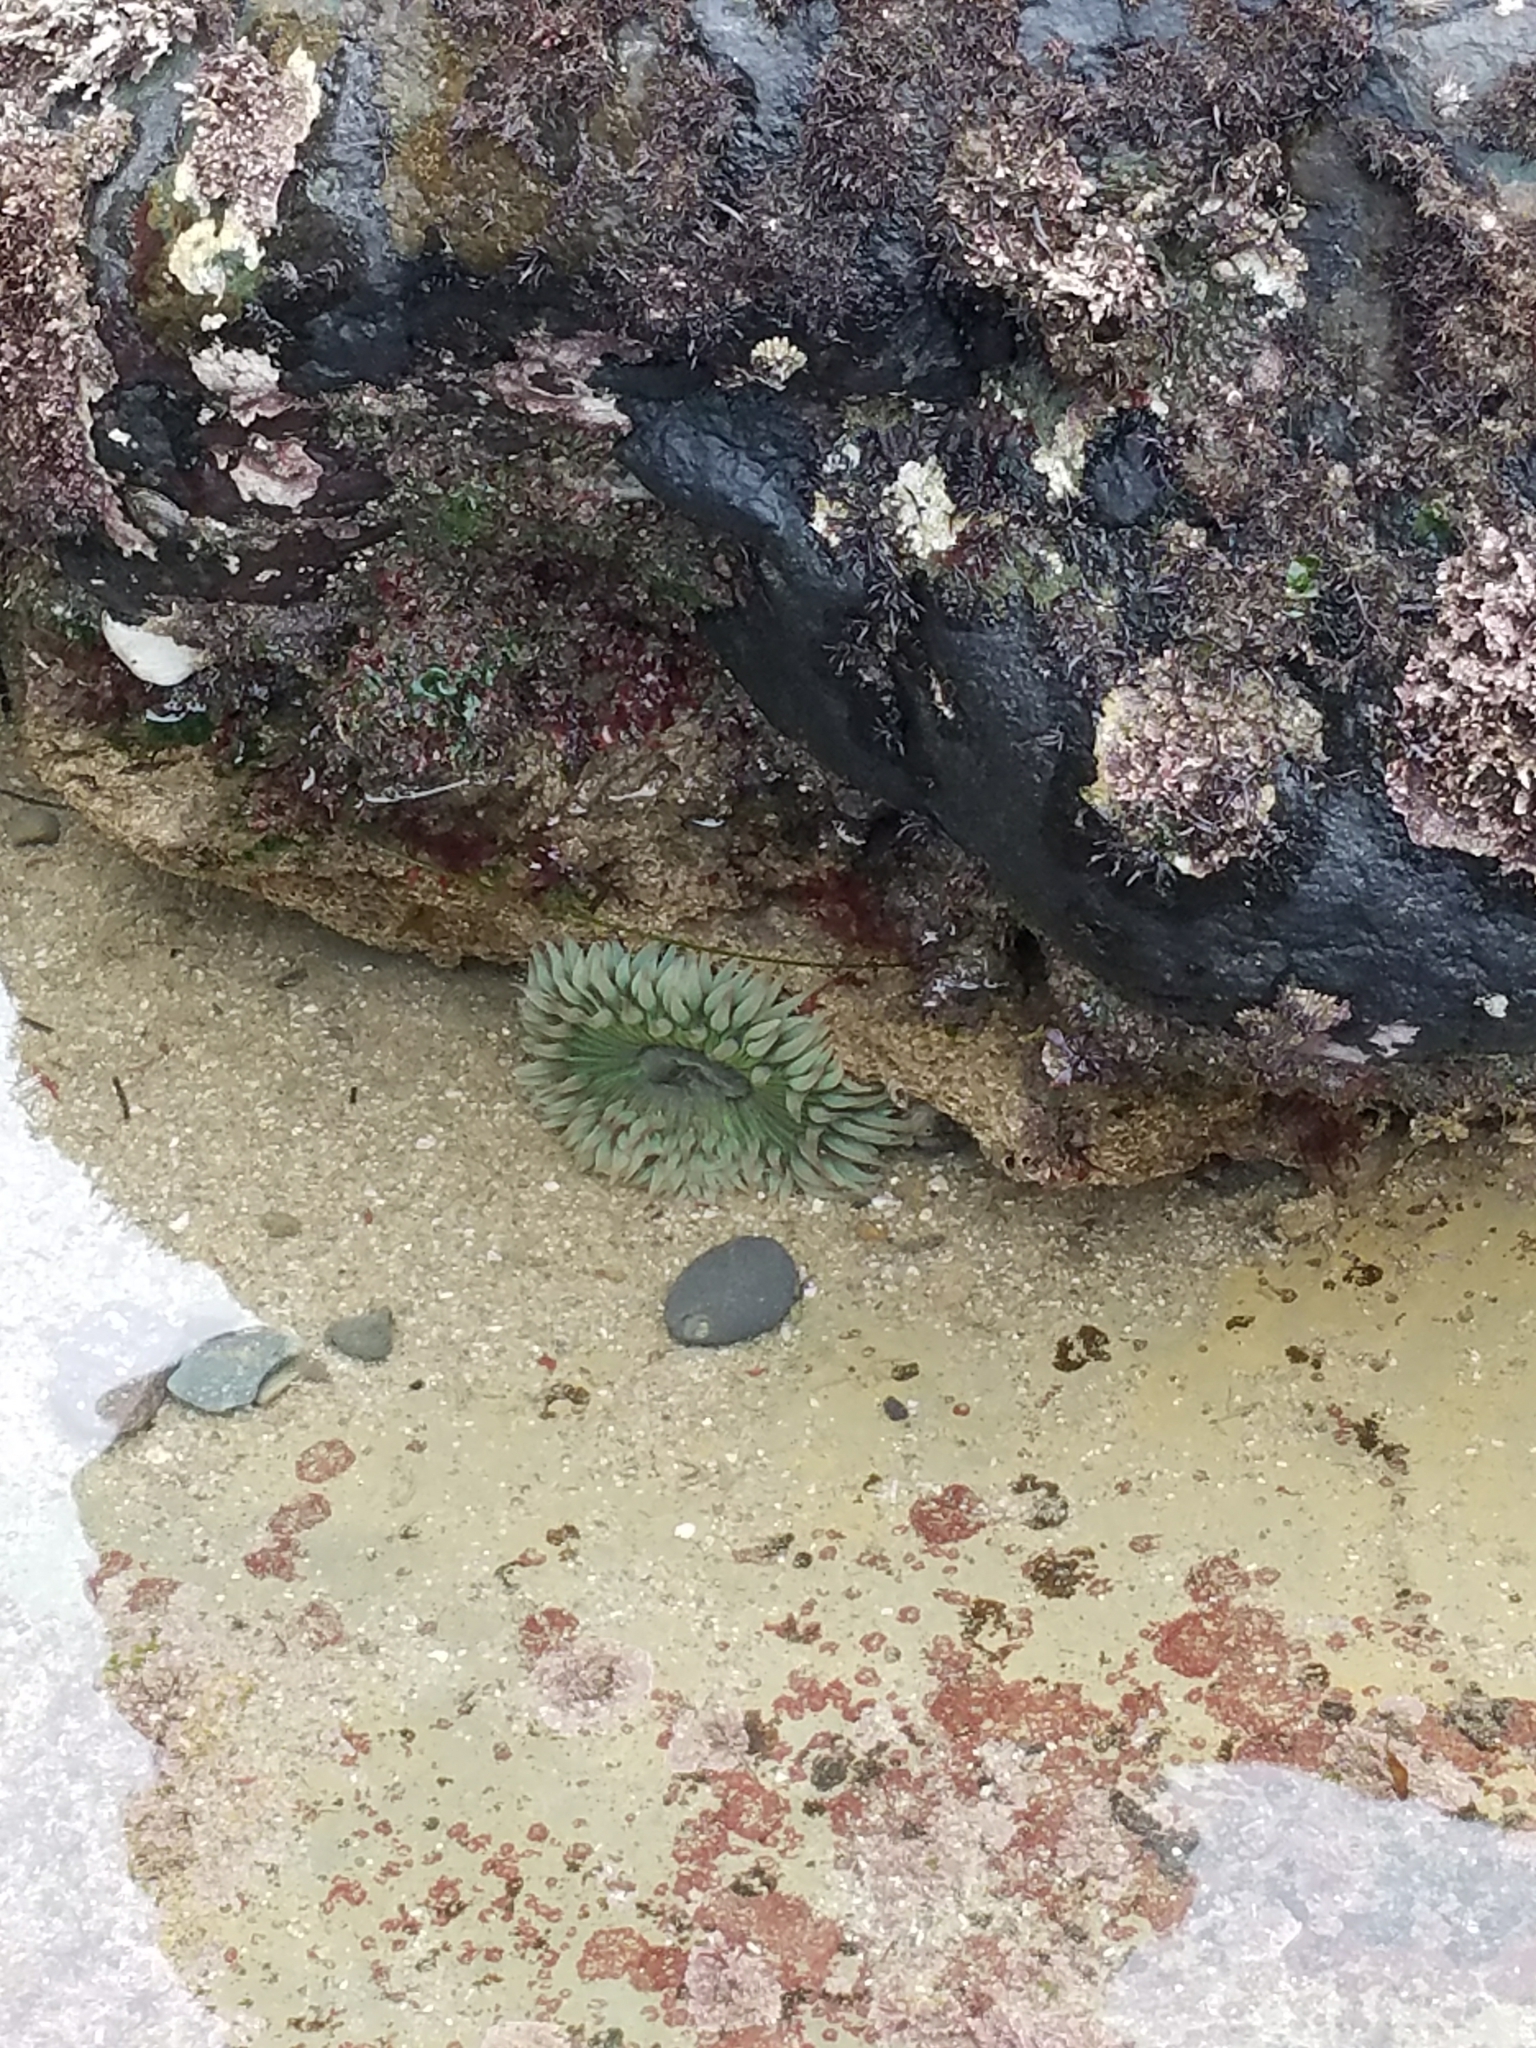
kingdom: Animalia
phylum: Cnidaria
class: Anthozoa
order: Actiniaria
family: Actiniidae
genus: Anthopleura
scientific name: Anthopleura sola
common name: Sun anemone
